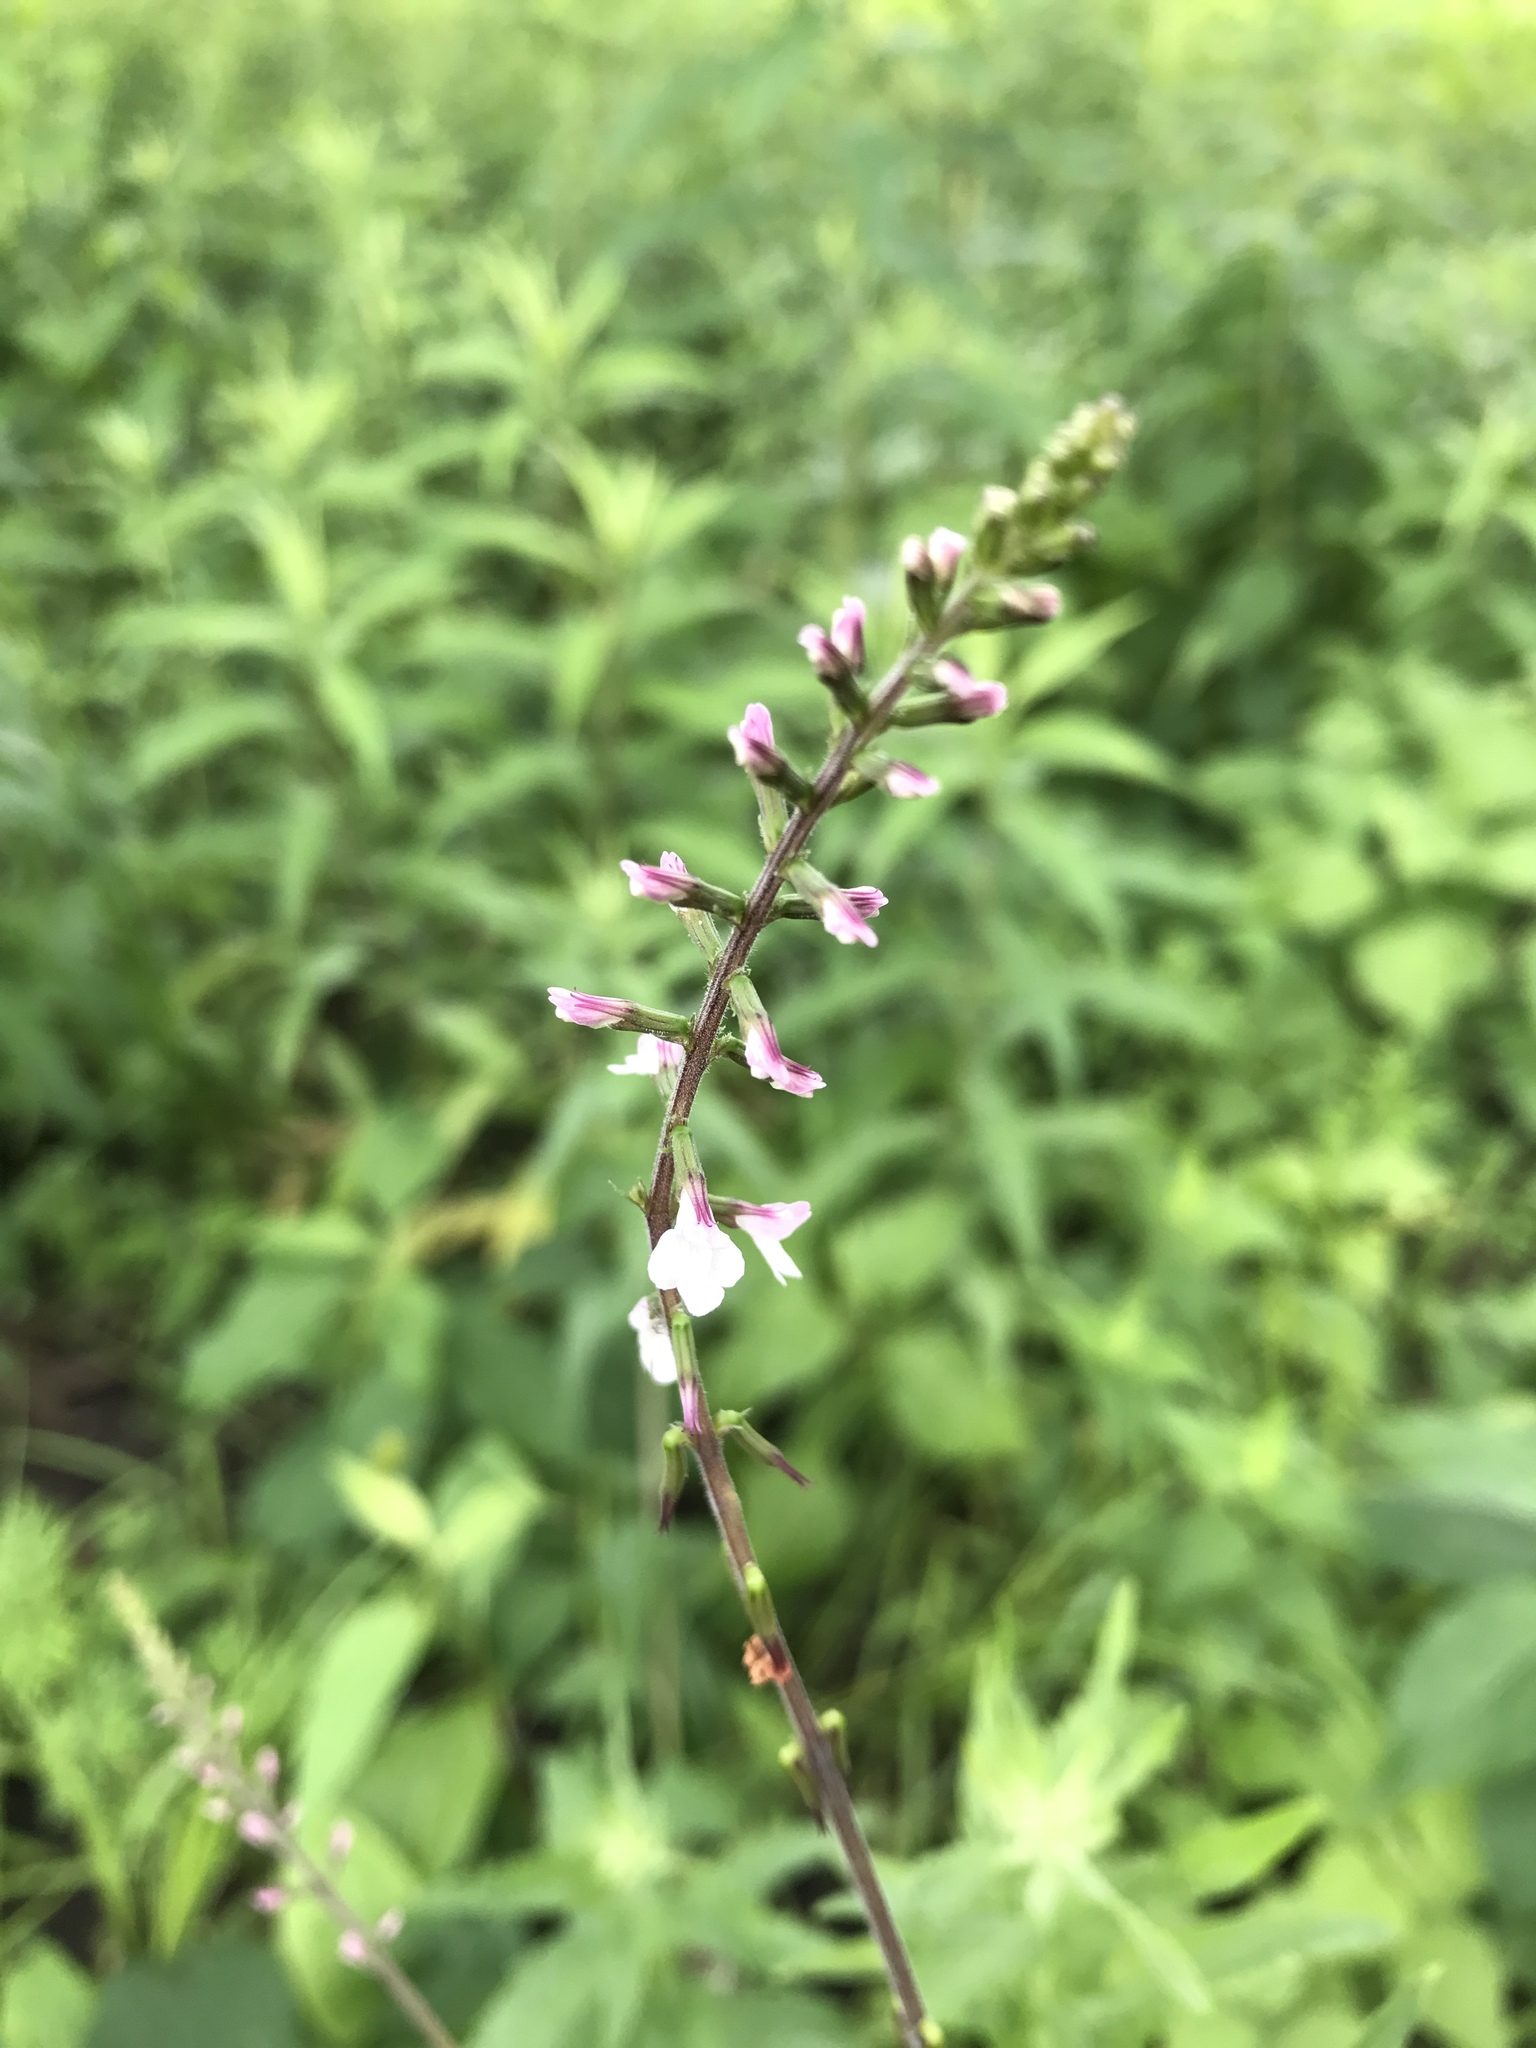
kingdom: Plantae
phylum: Tracheophyta
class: Magnoliopsida
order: Lamiales
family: Phrymaceae
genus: Phryma
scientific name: Phryma leptostachya
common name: American lopseed
